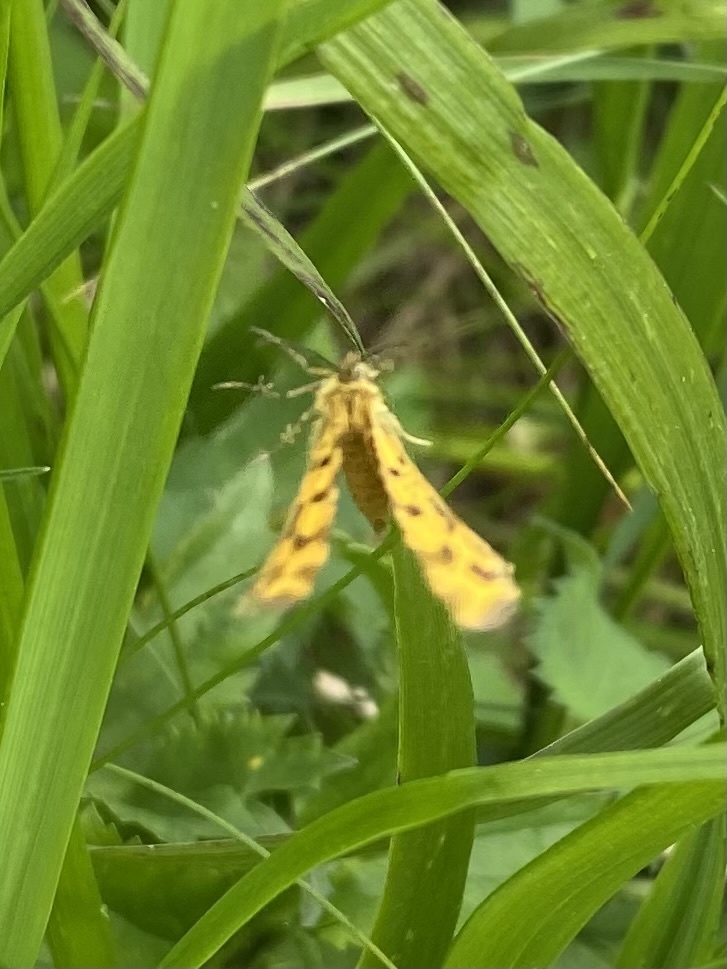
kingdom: Animalia
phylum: Arthropoda
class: Insecta
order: Lepidoptera
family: Geometridae
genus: Pseudopanthera
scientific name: Pseudopanthera macularia
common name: Speckled yellow
